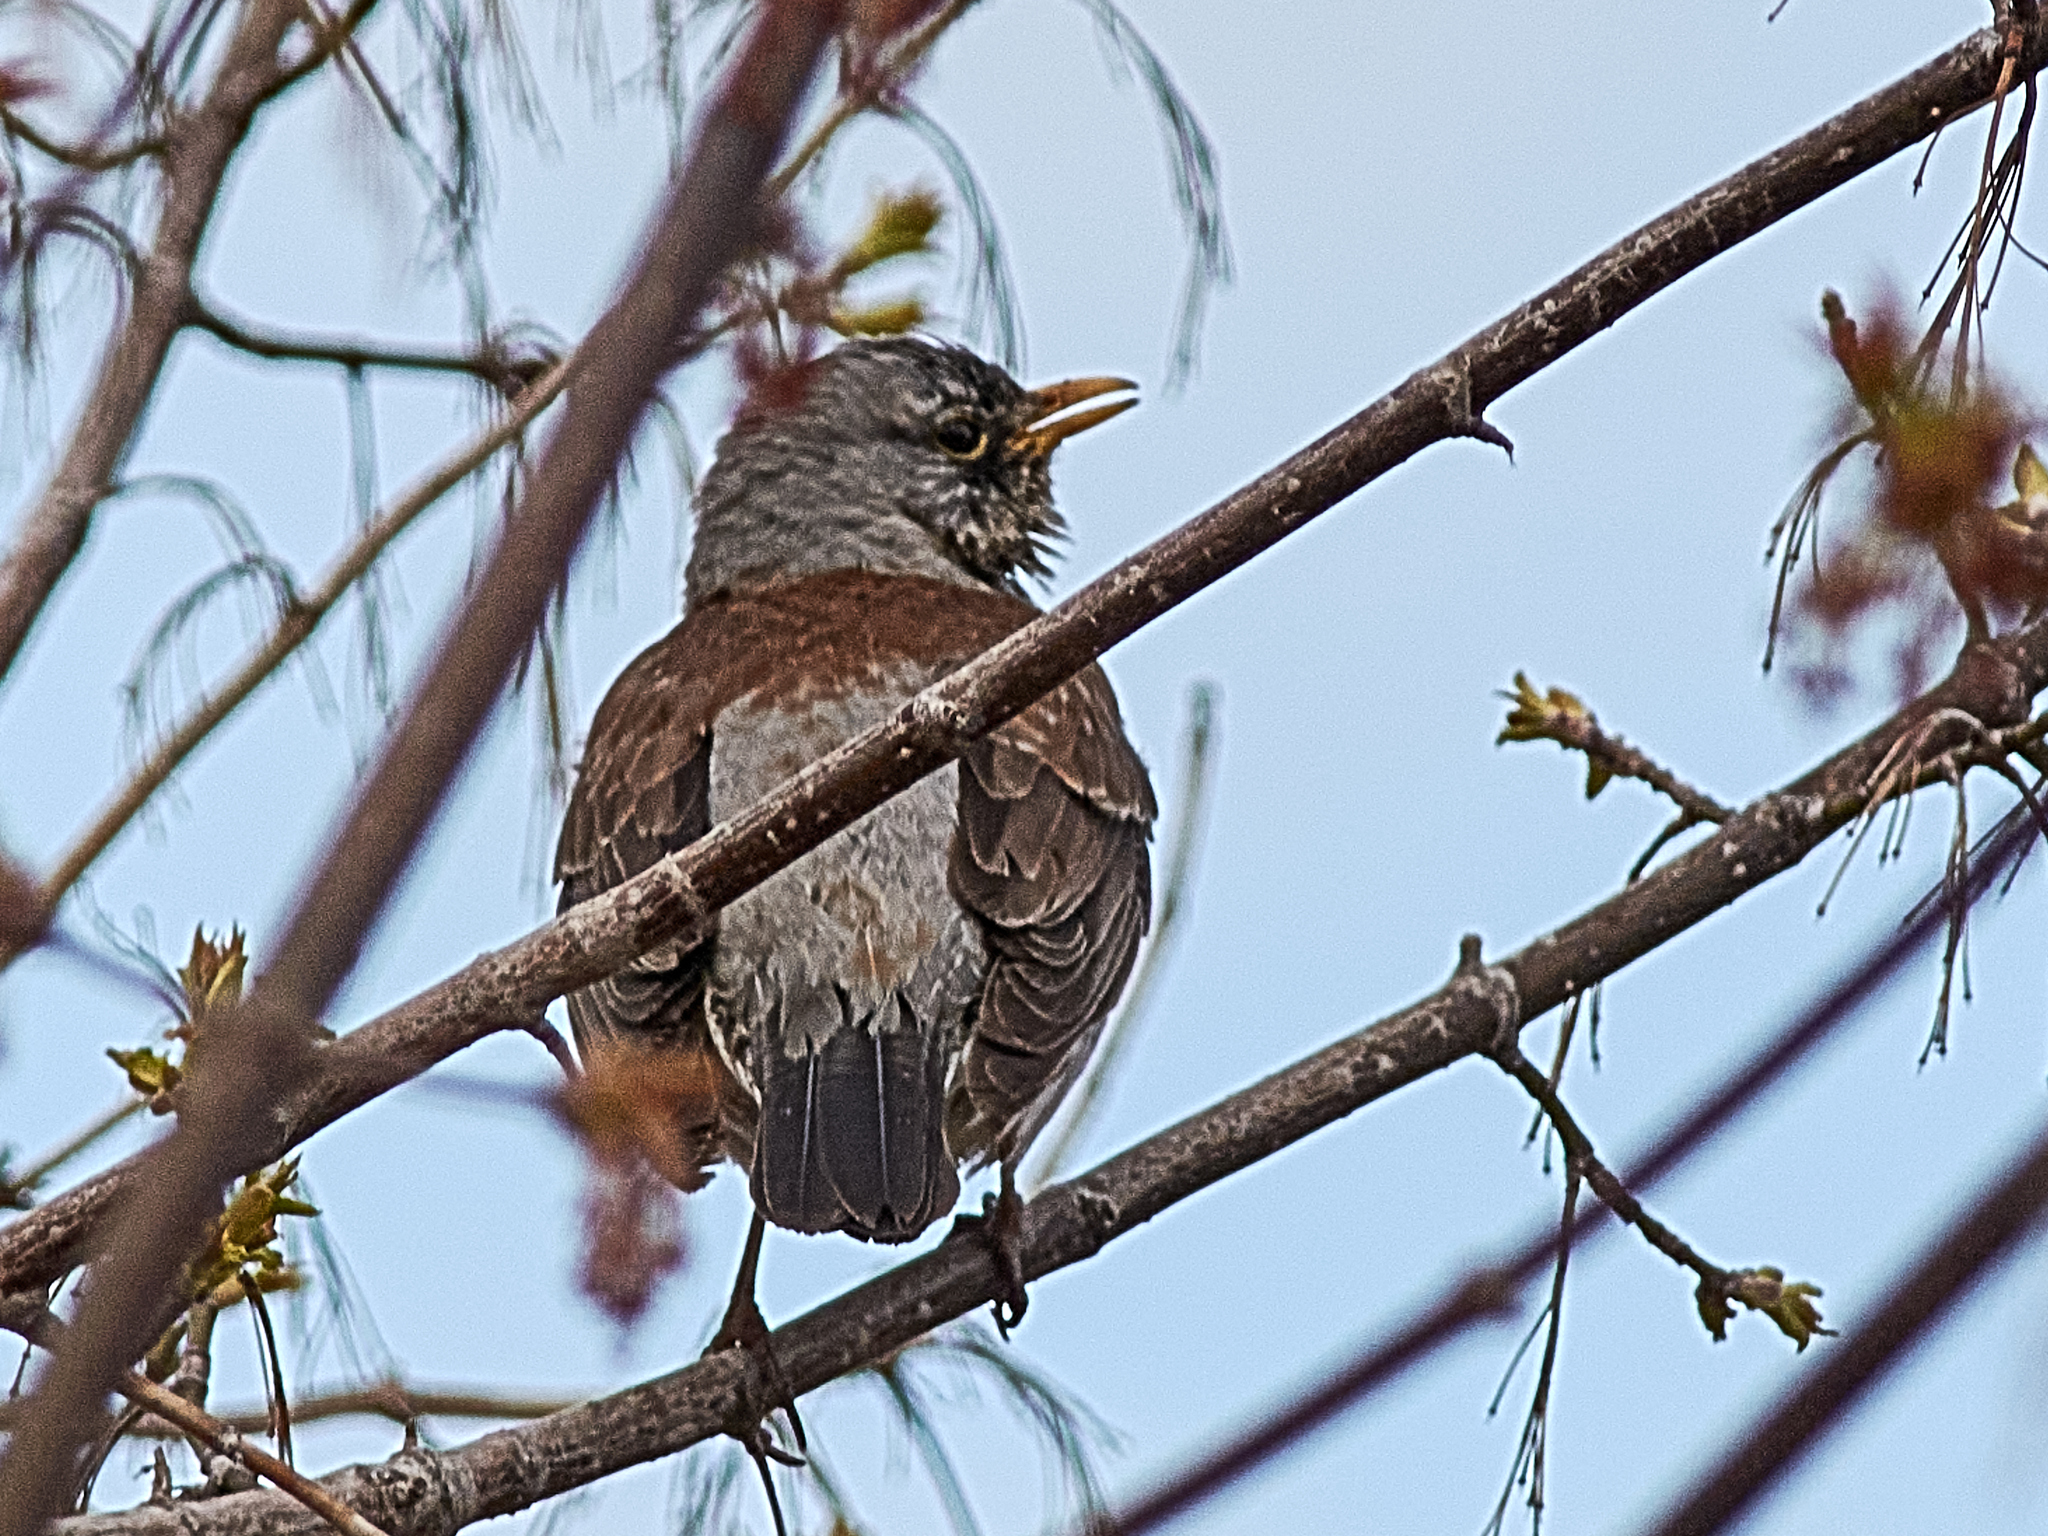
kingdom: Animalia
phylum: Chordata
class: Aves
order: Passeriformes
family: Turdidae
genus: Turdus
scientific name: Turdus pilaris
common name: Fieldfare
